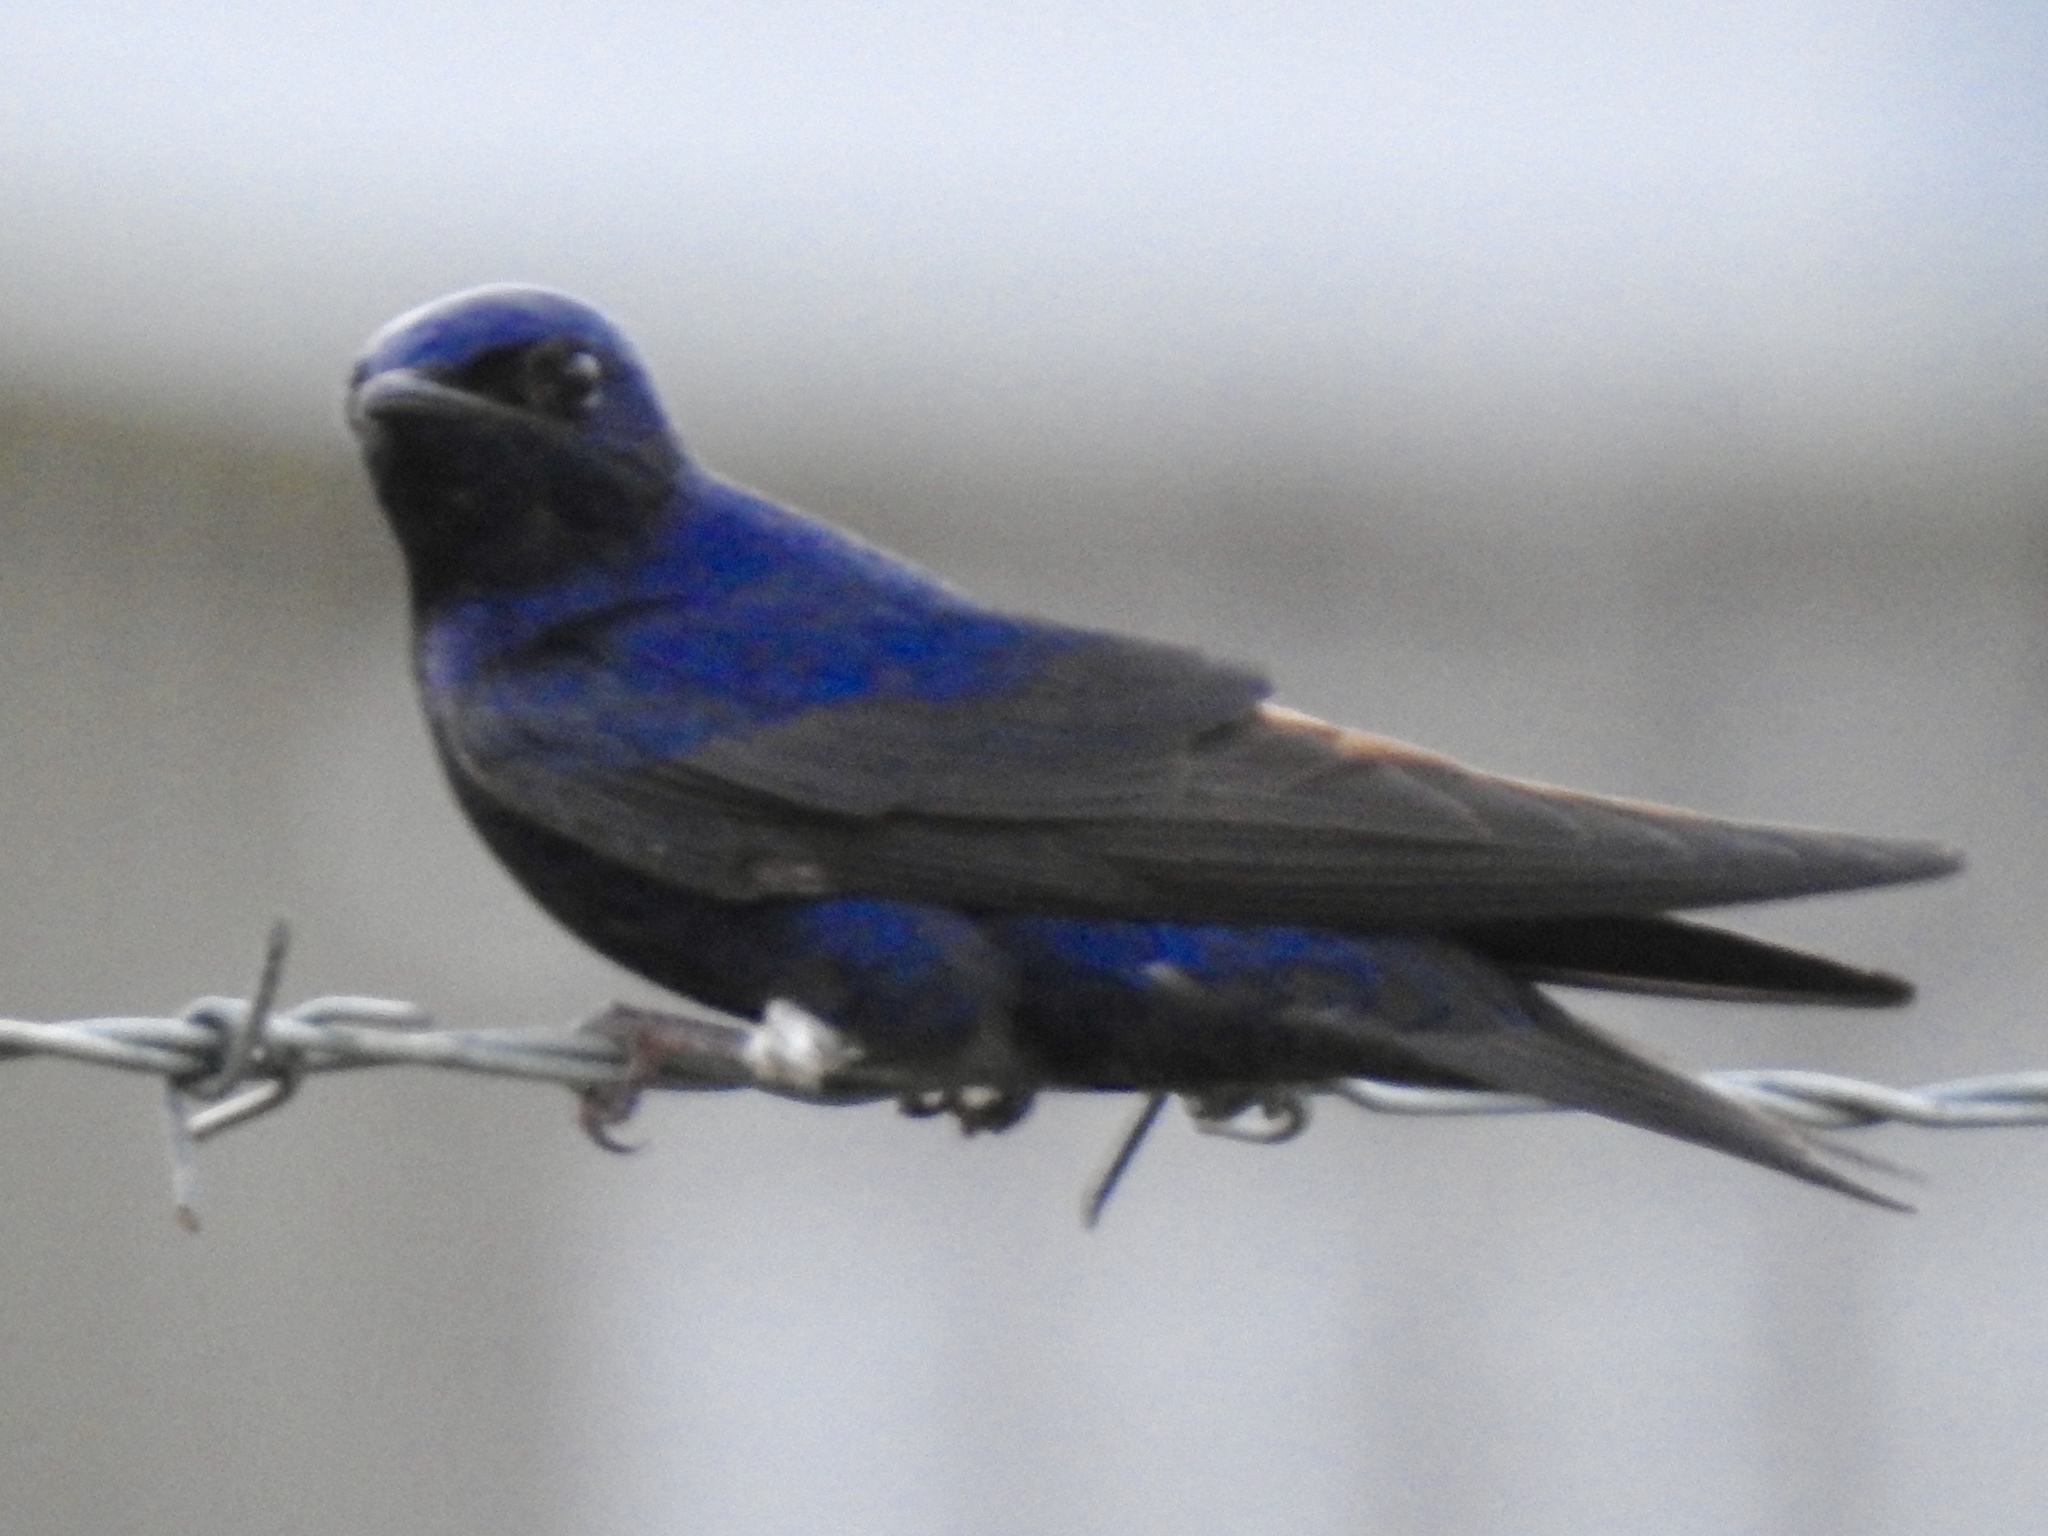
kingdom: Animalia
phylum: Chordata
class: Aves
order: Passeriformes
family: Hirundinidae
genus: Progne
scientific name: Progne subis
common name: Purple martin
